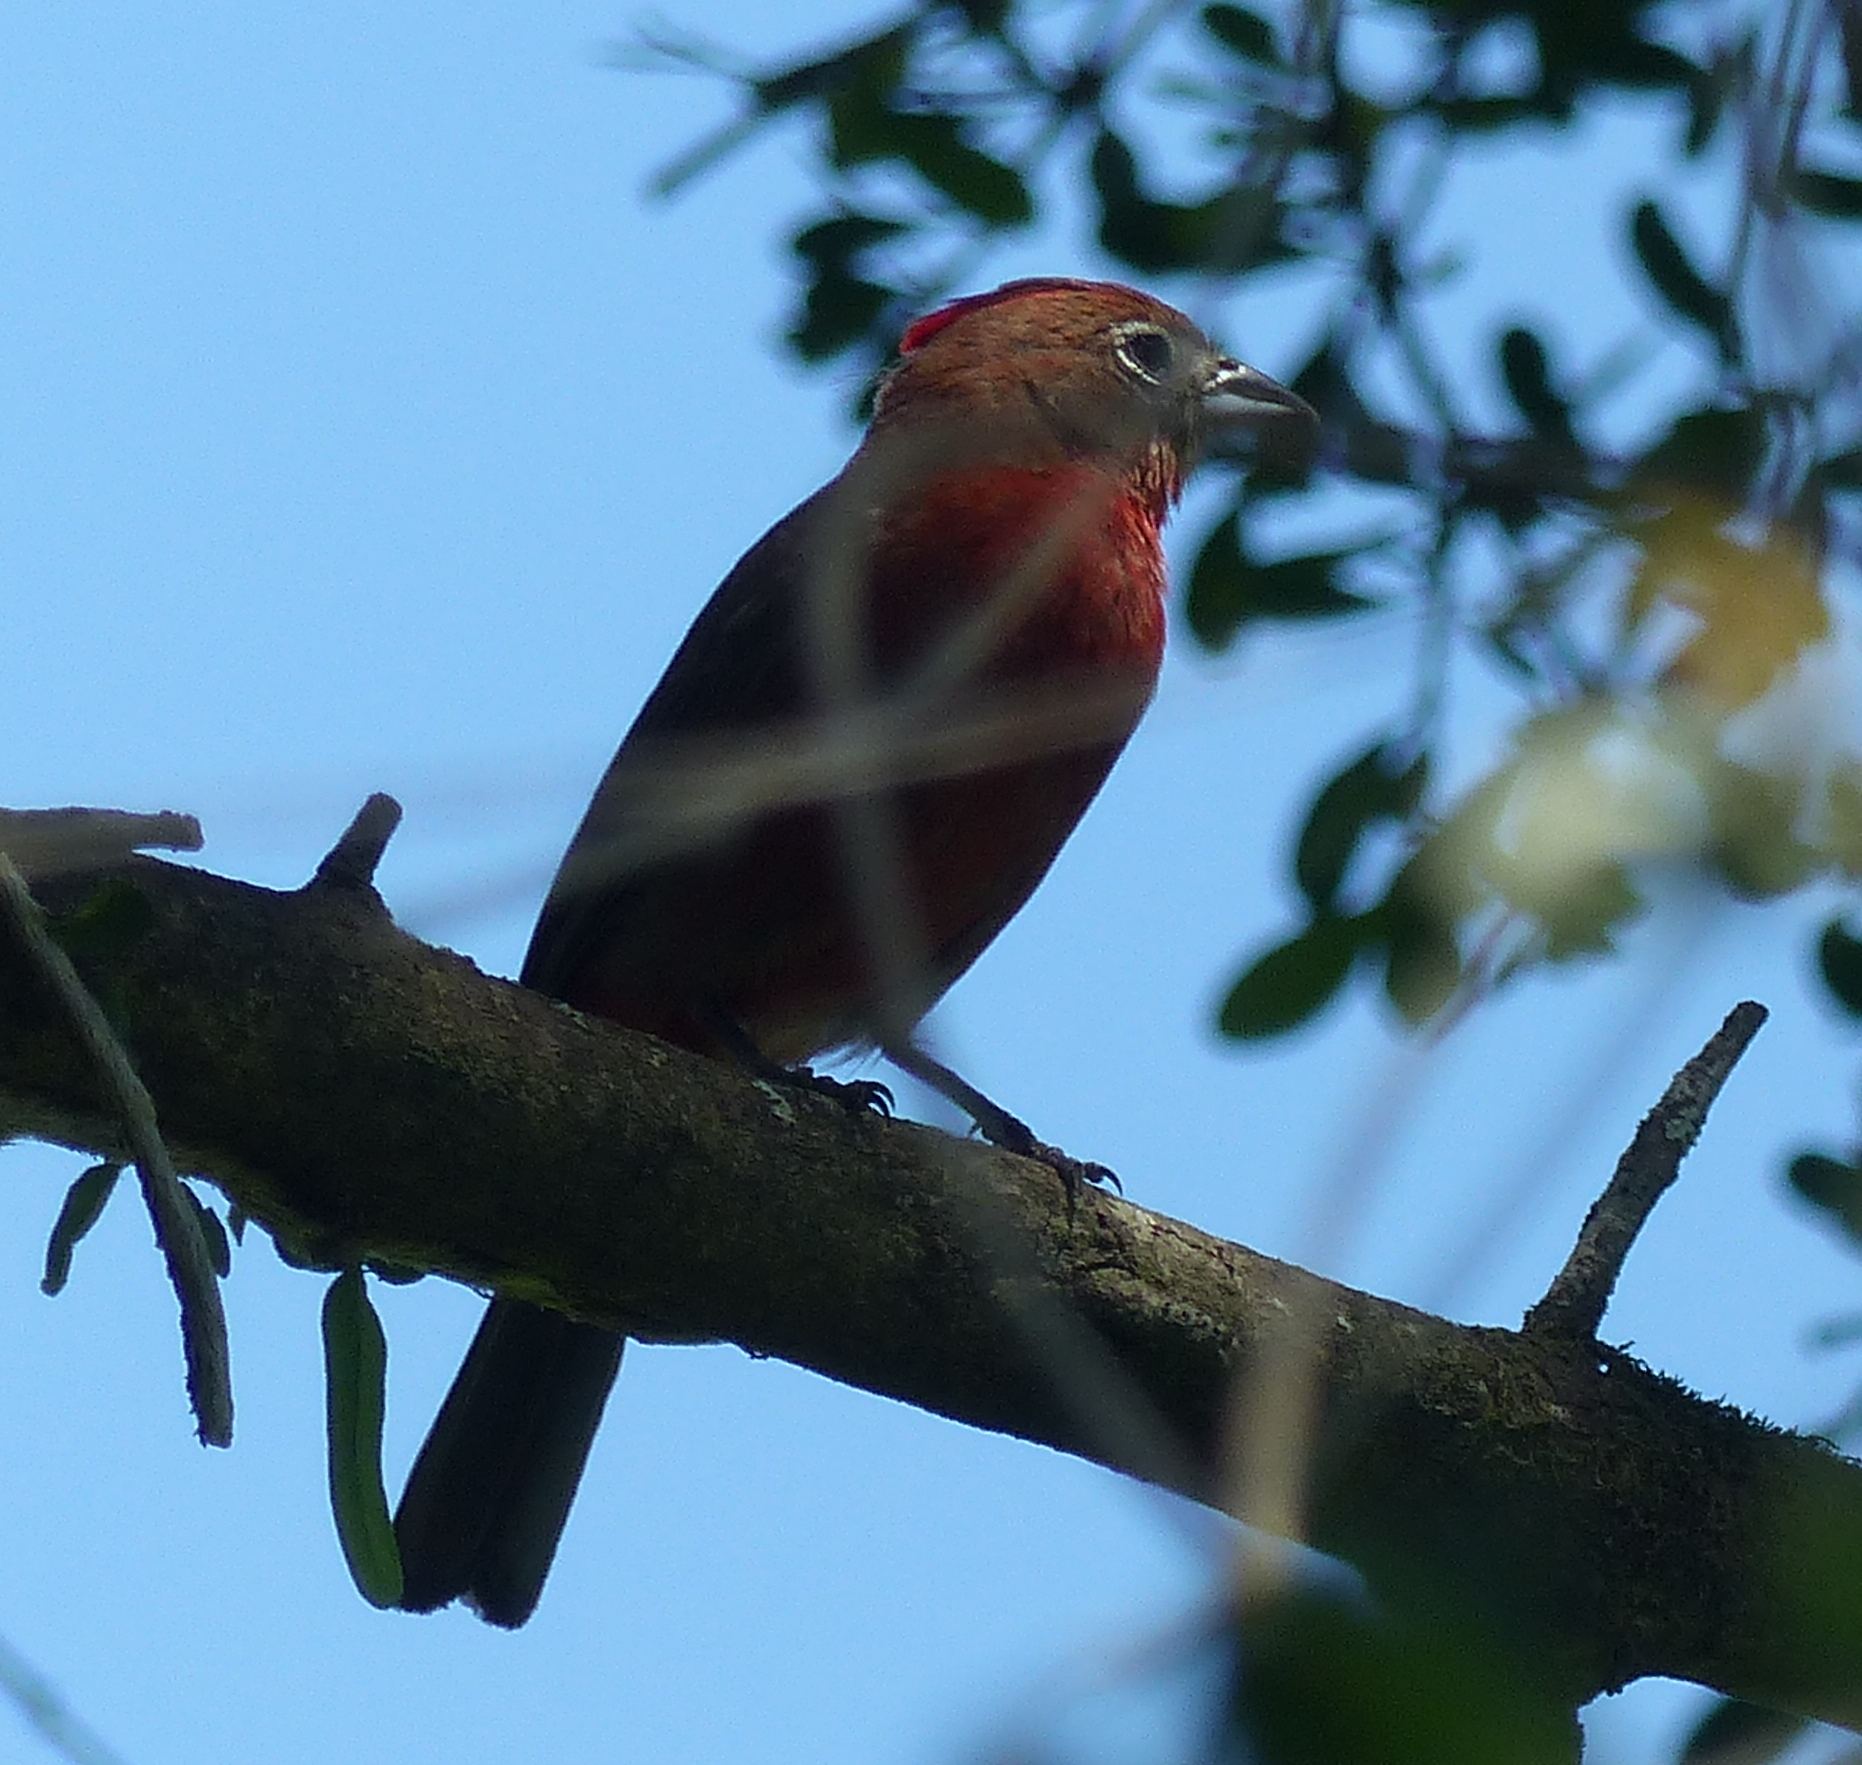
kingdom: Animalia
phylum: Chordata
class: Aves
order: Passeriformes
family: Thraupidae
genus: Coryphospingus
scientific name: Coryphospingus cucullatus
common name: Red pileated finch
